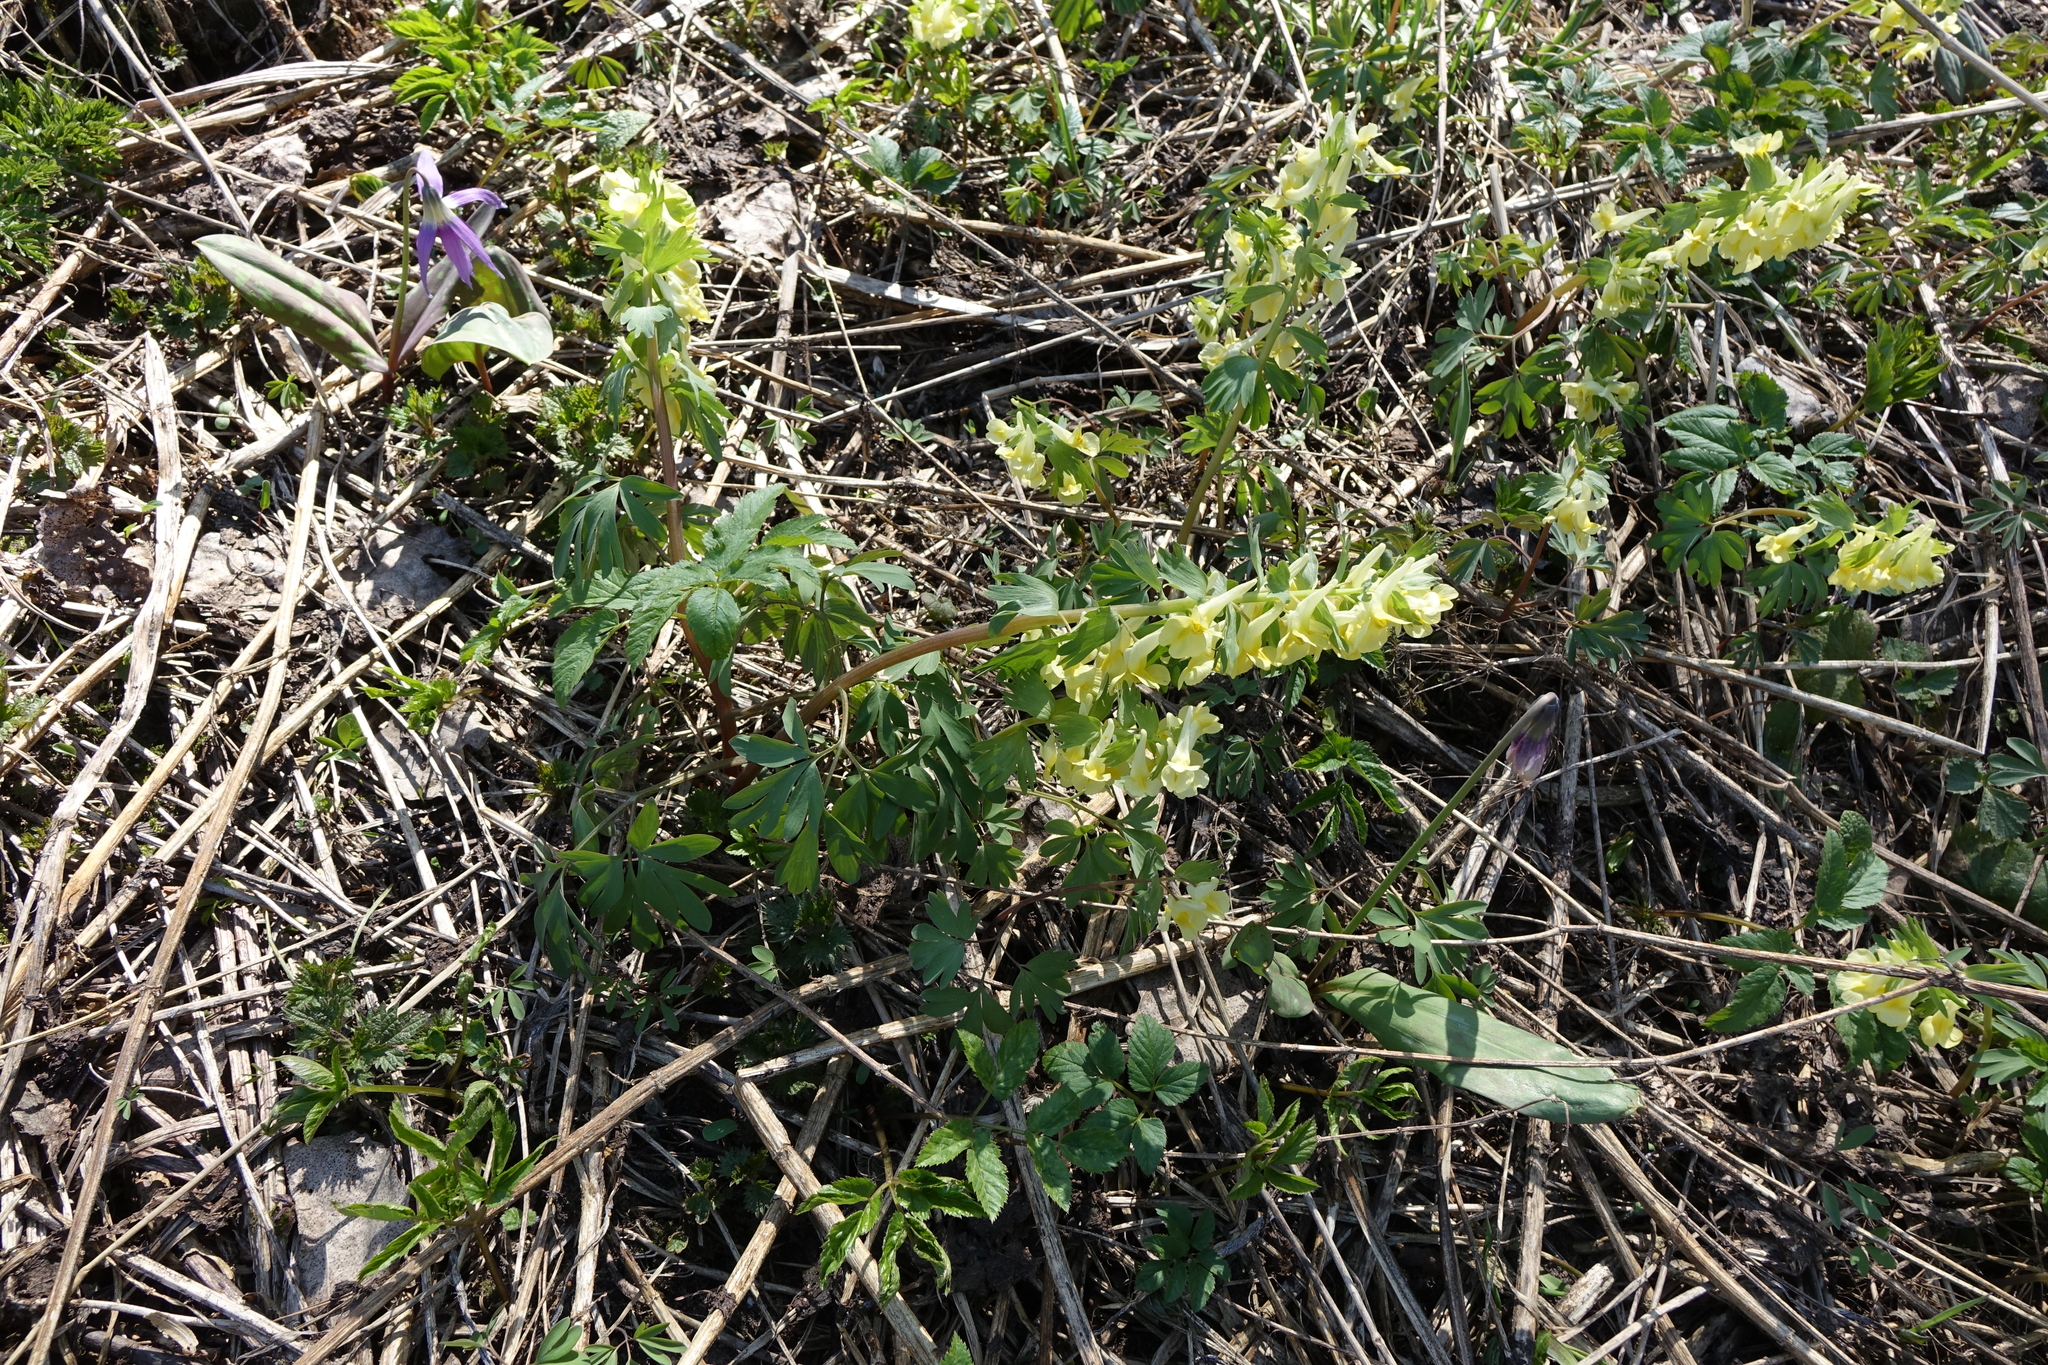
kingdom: Plantae
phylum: Tracheophyta
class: Magnoliopsida
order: Ranunculales
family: Papaveraceae
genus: Corydalis
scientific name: Corydalis bracteata
